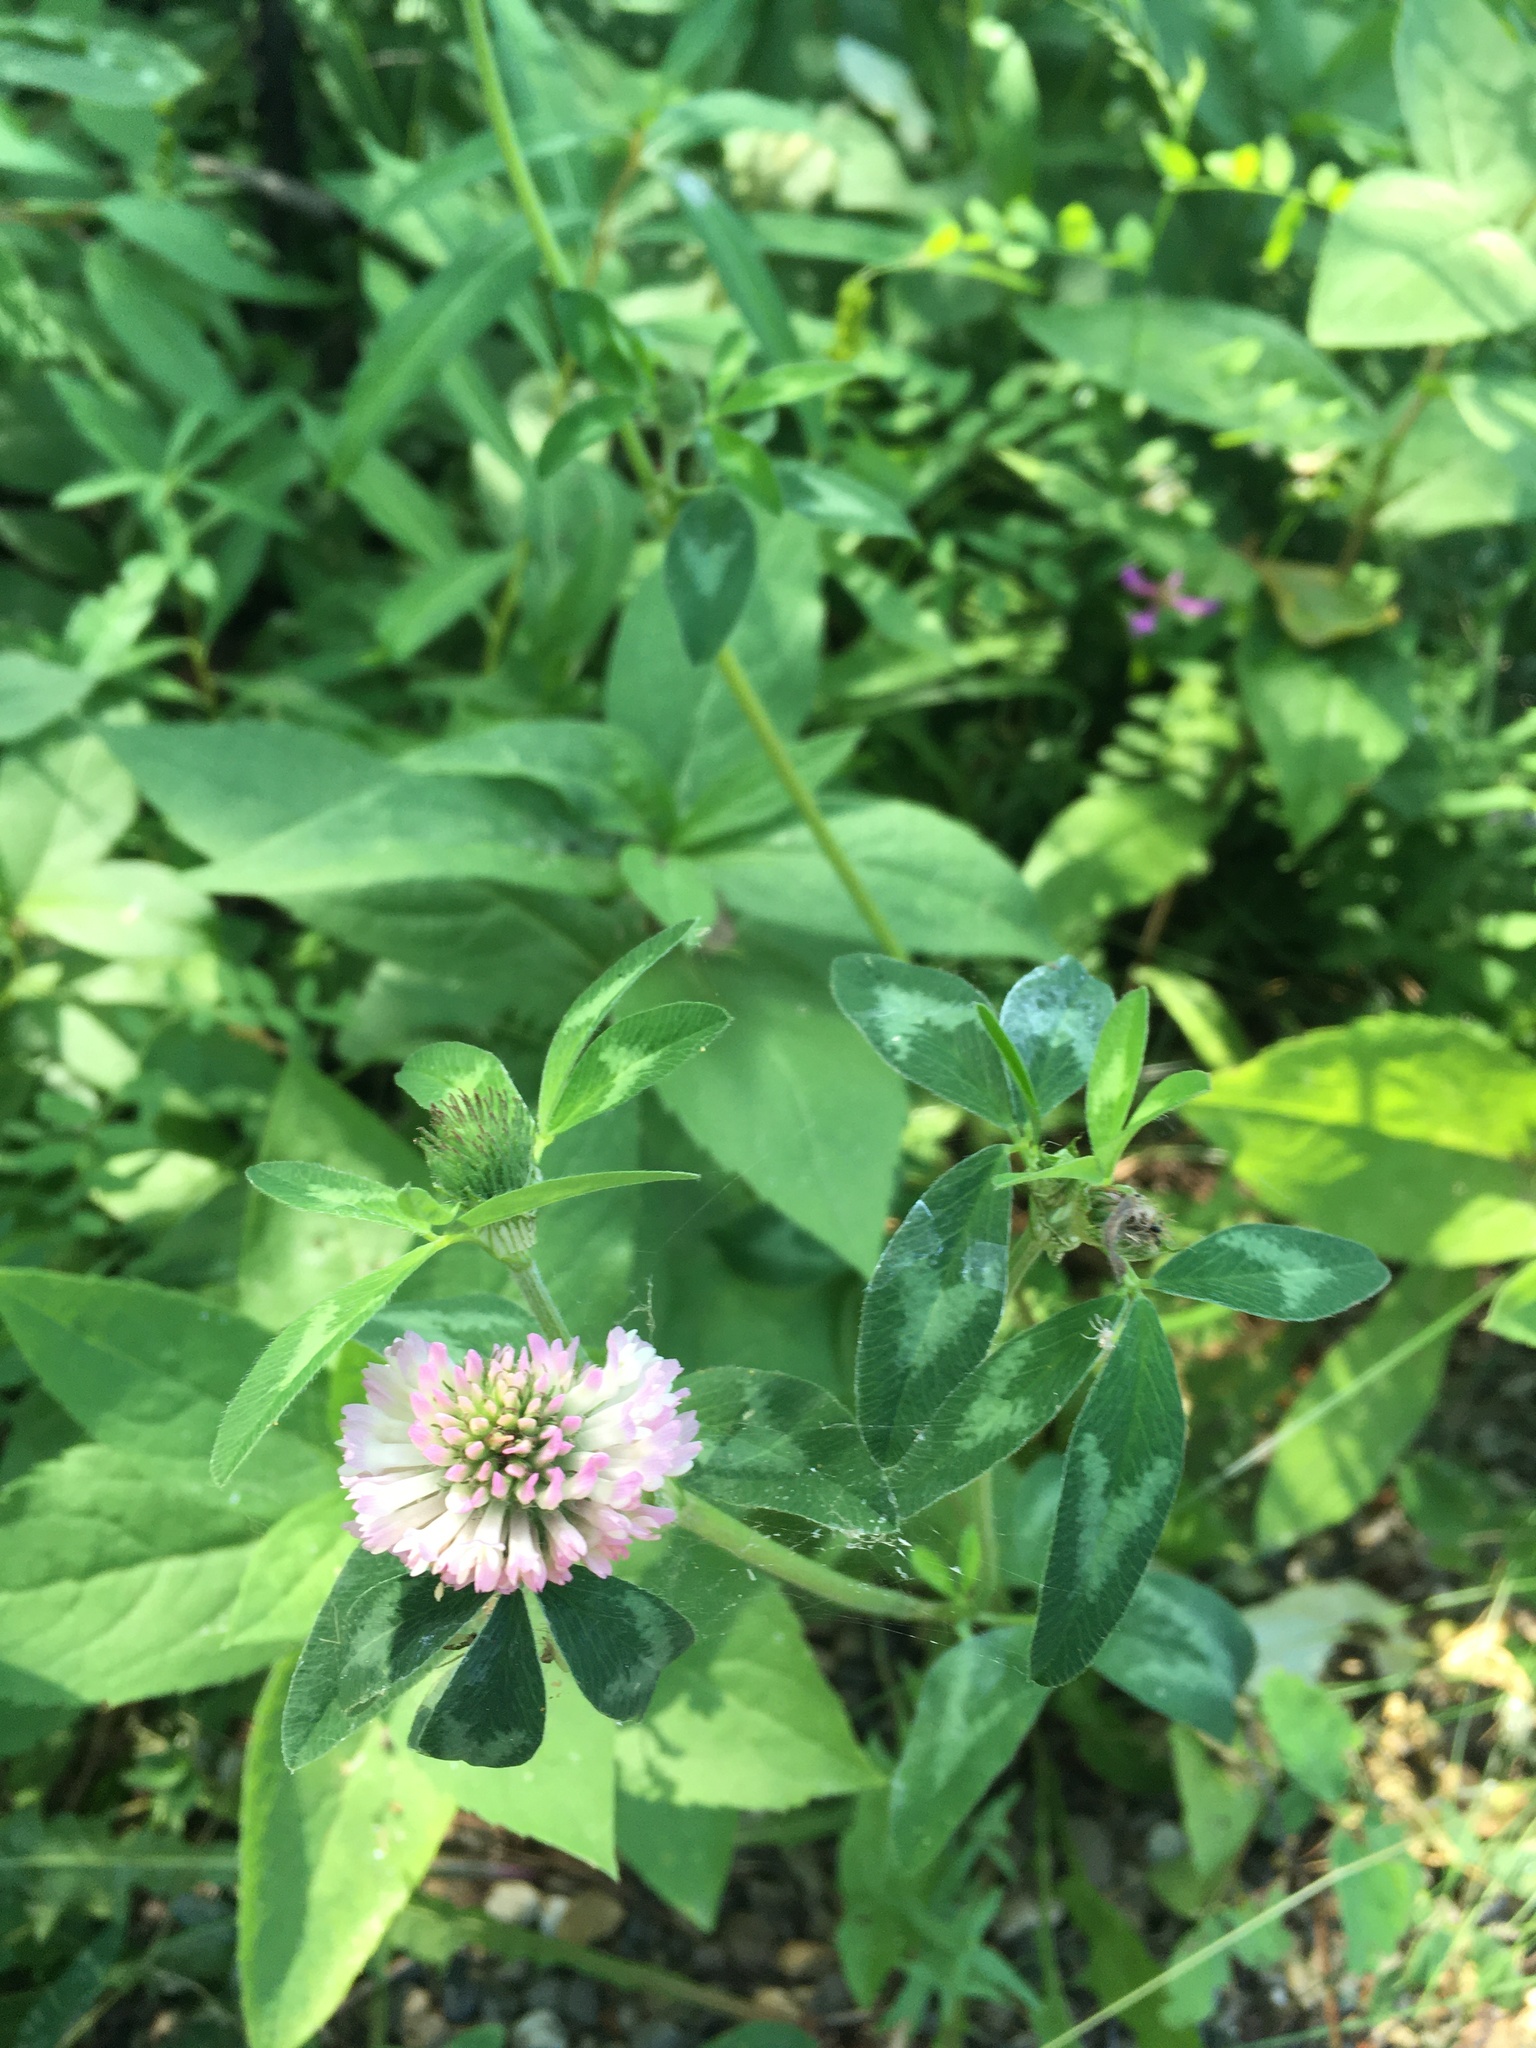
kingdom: Plantae
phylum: Tracheophyta
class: Magnoliopsida
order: Fabales
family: Fabaceae
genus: Trifolium
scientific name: Trifolium pratense
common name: Red clover
